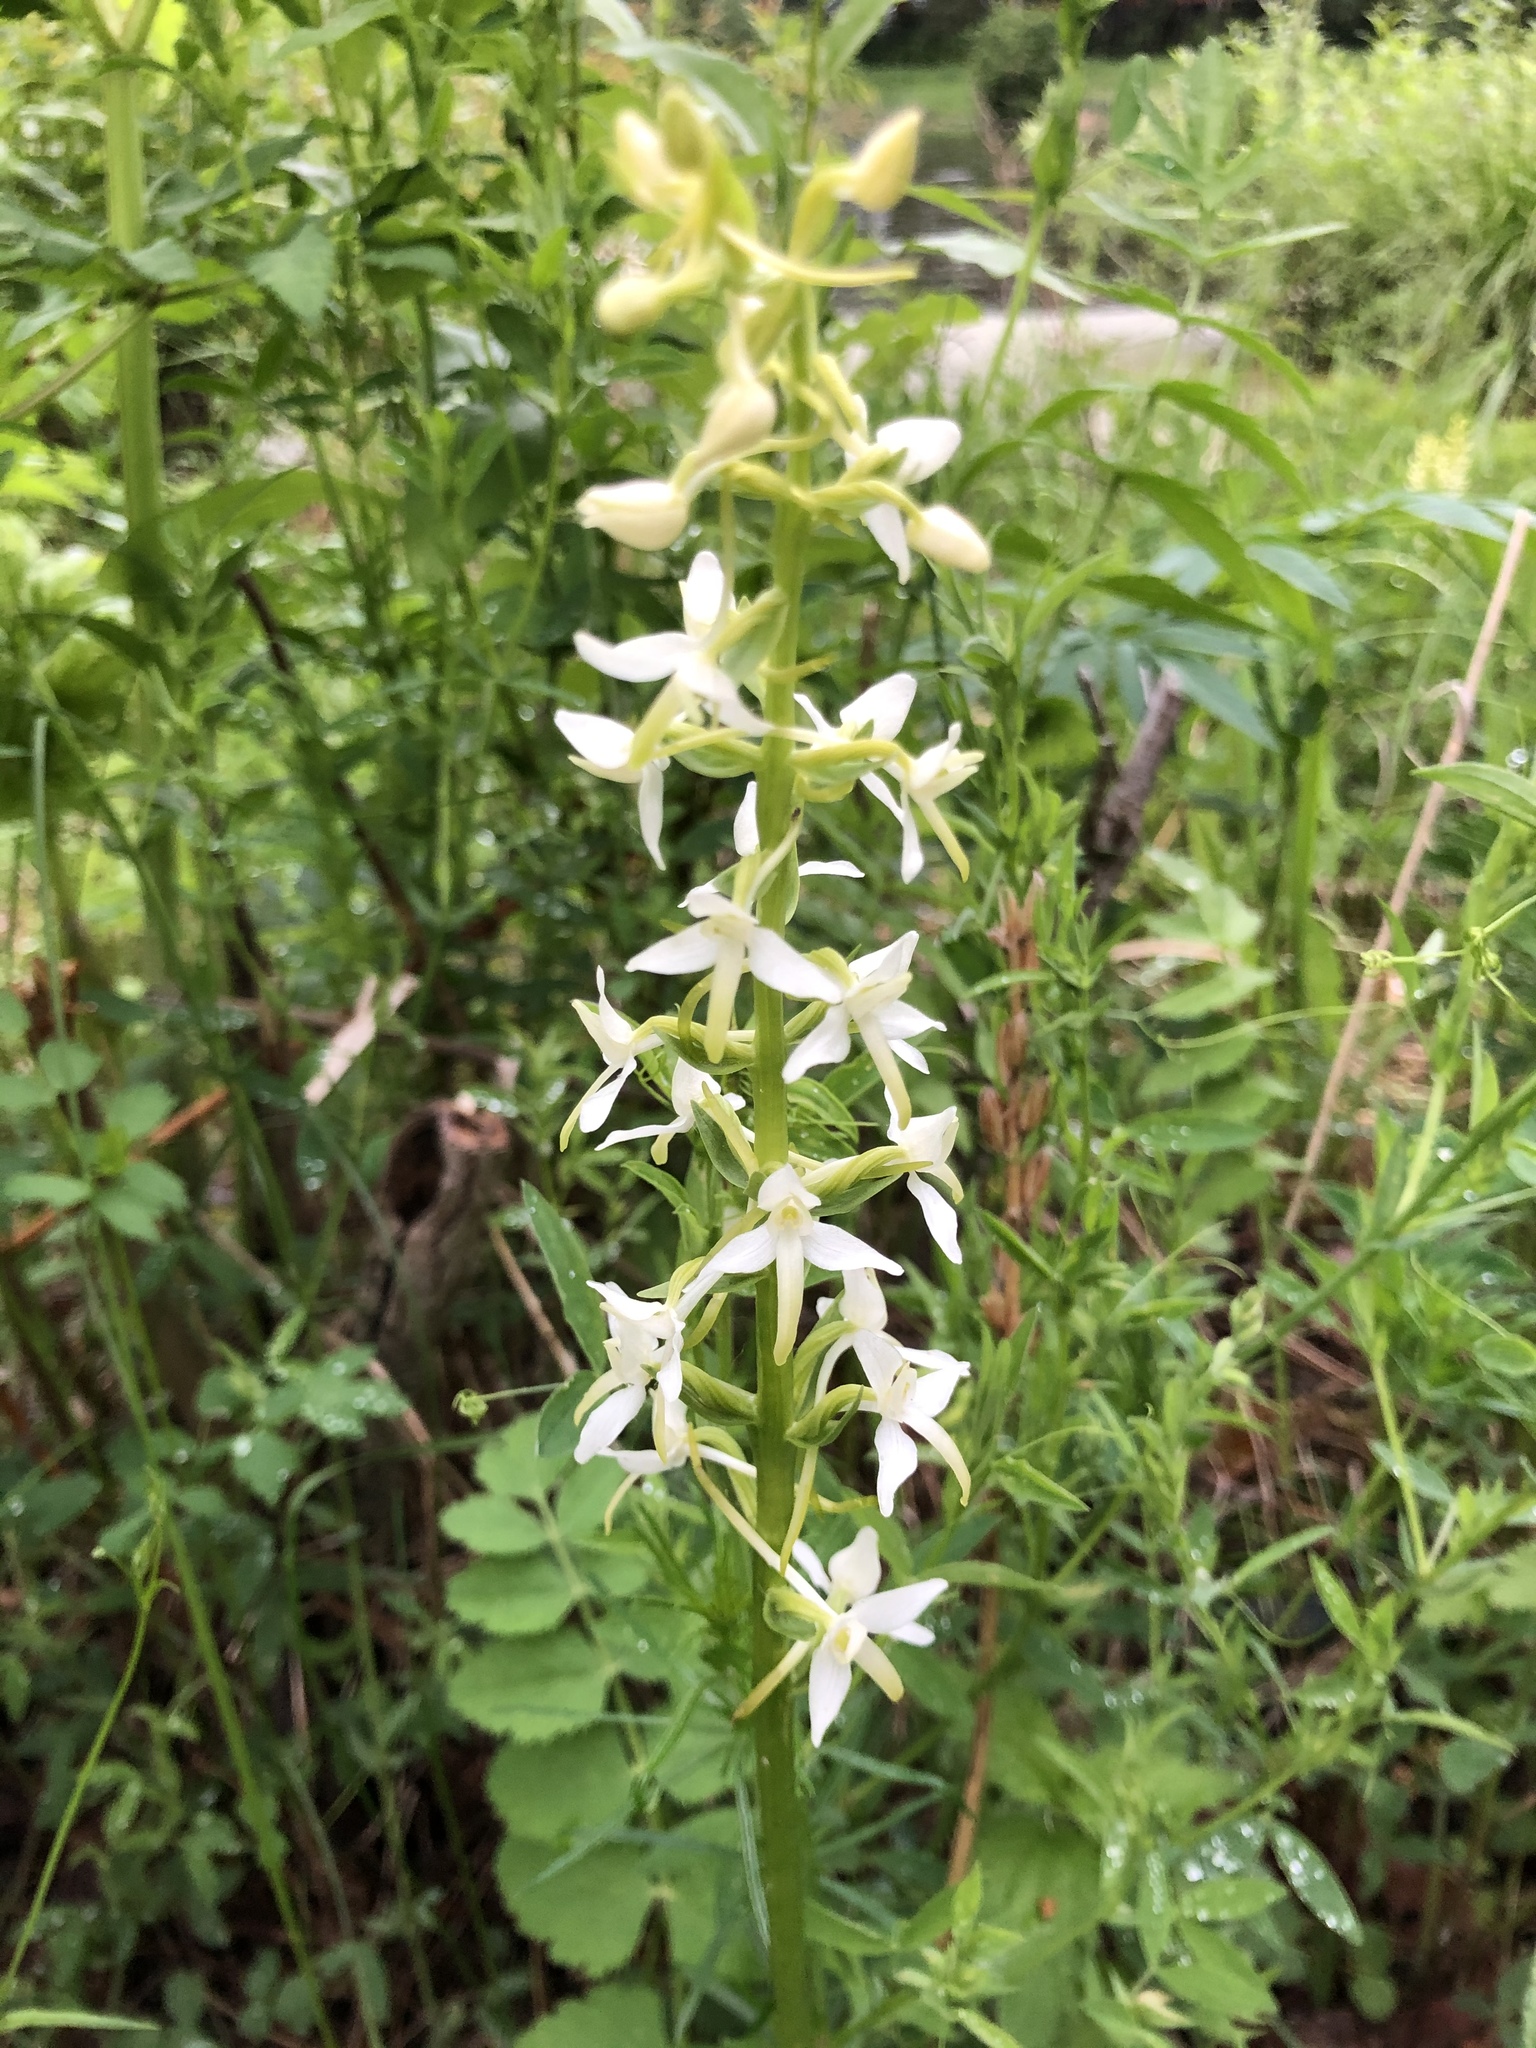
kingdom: Plantae
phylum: Tracheophyta
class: Liliopsida
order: Asparagales
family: Orchidaceae
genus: Platanthera
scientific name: Platanthera bifolia
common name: Lesser butterfly-orchid
